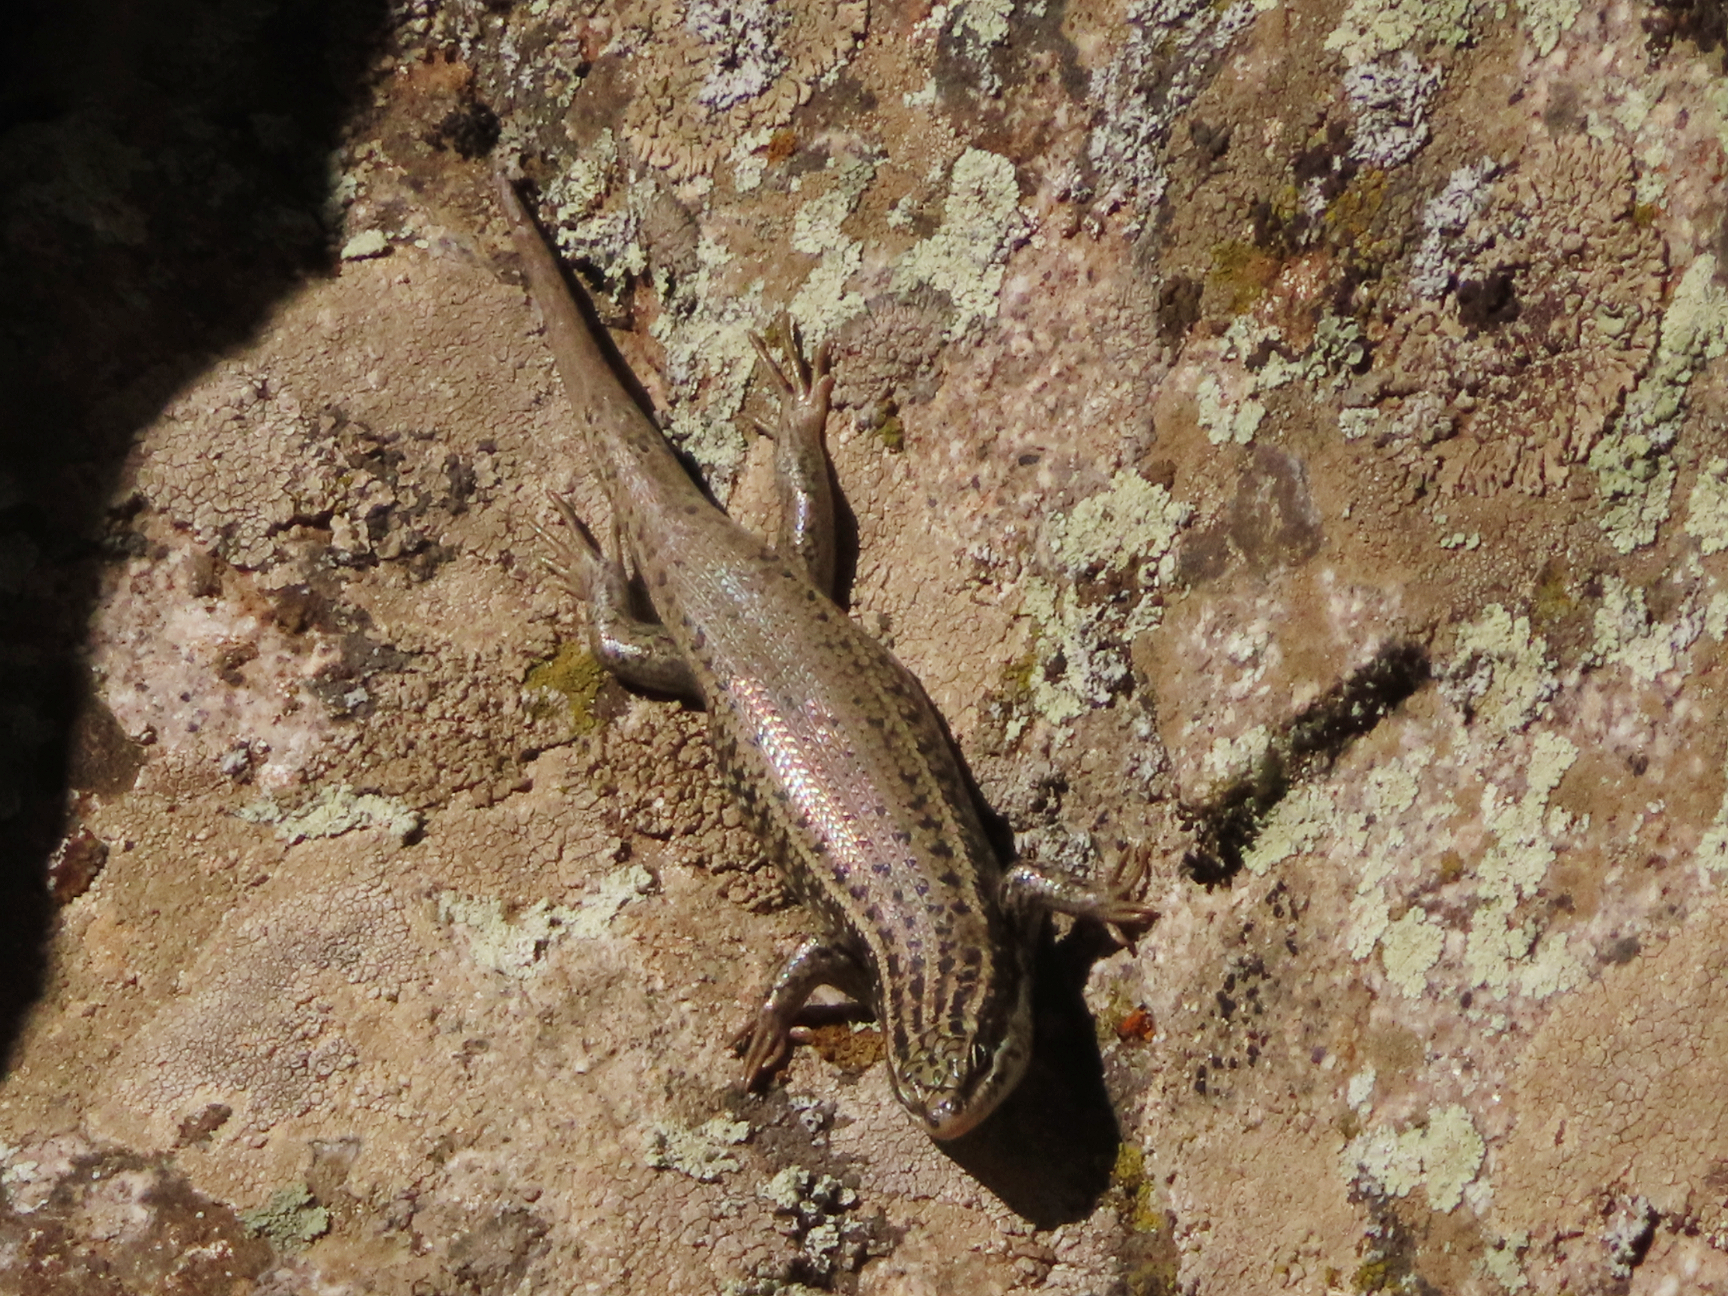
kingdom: Animalia
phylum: Chordata
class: Squamata
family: Scincidae
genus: Heremites
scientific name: Heremites septemtaeniatus
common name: Golden grass mabuya
